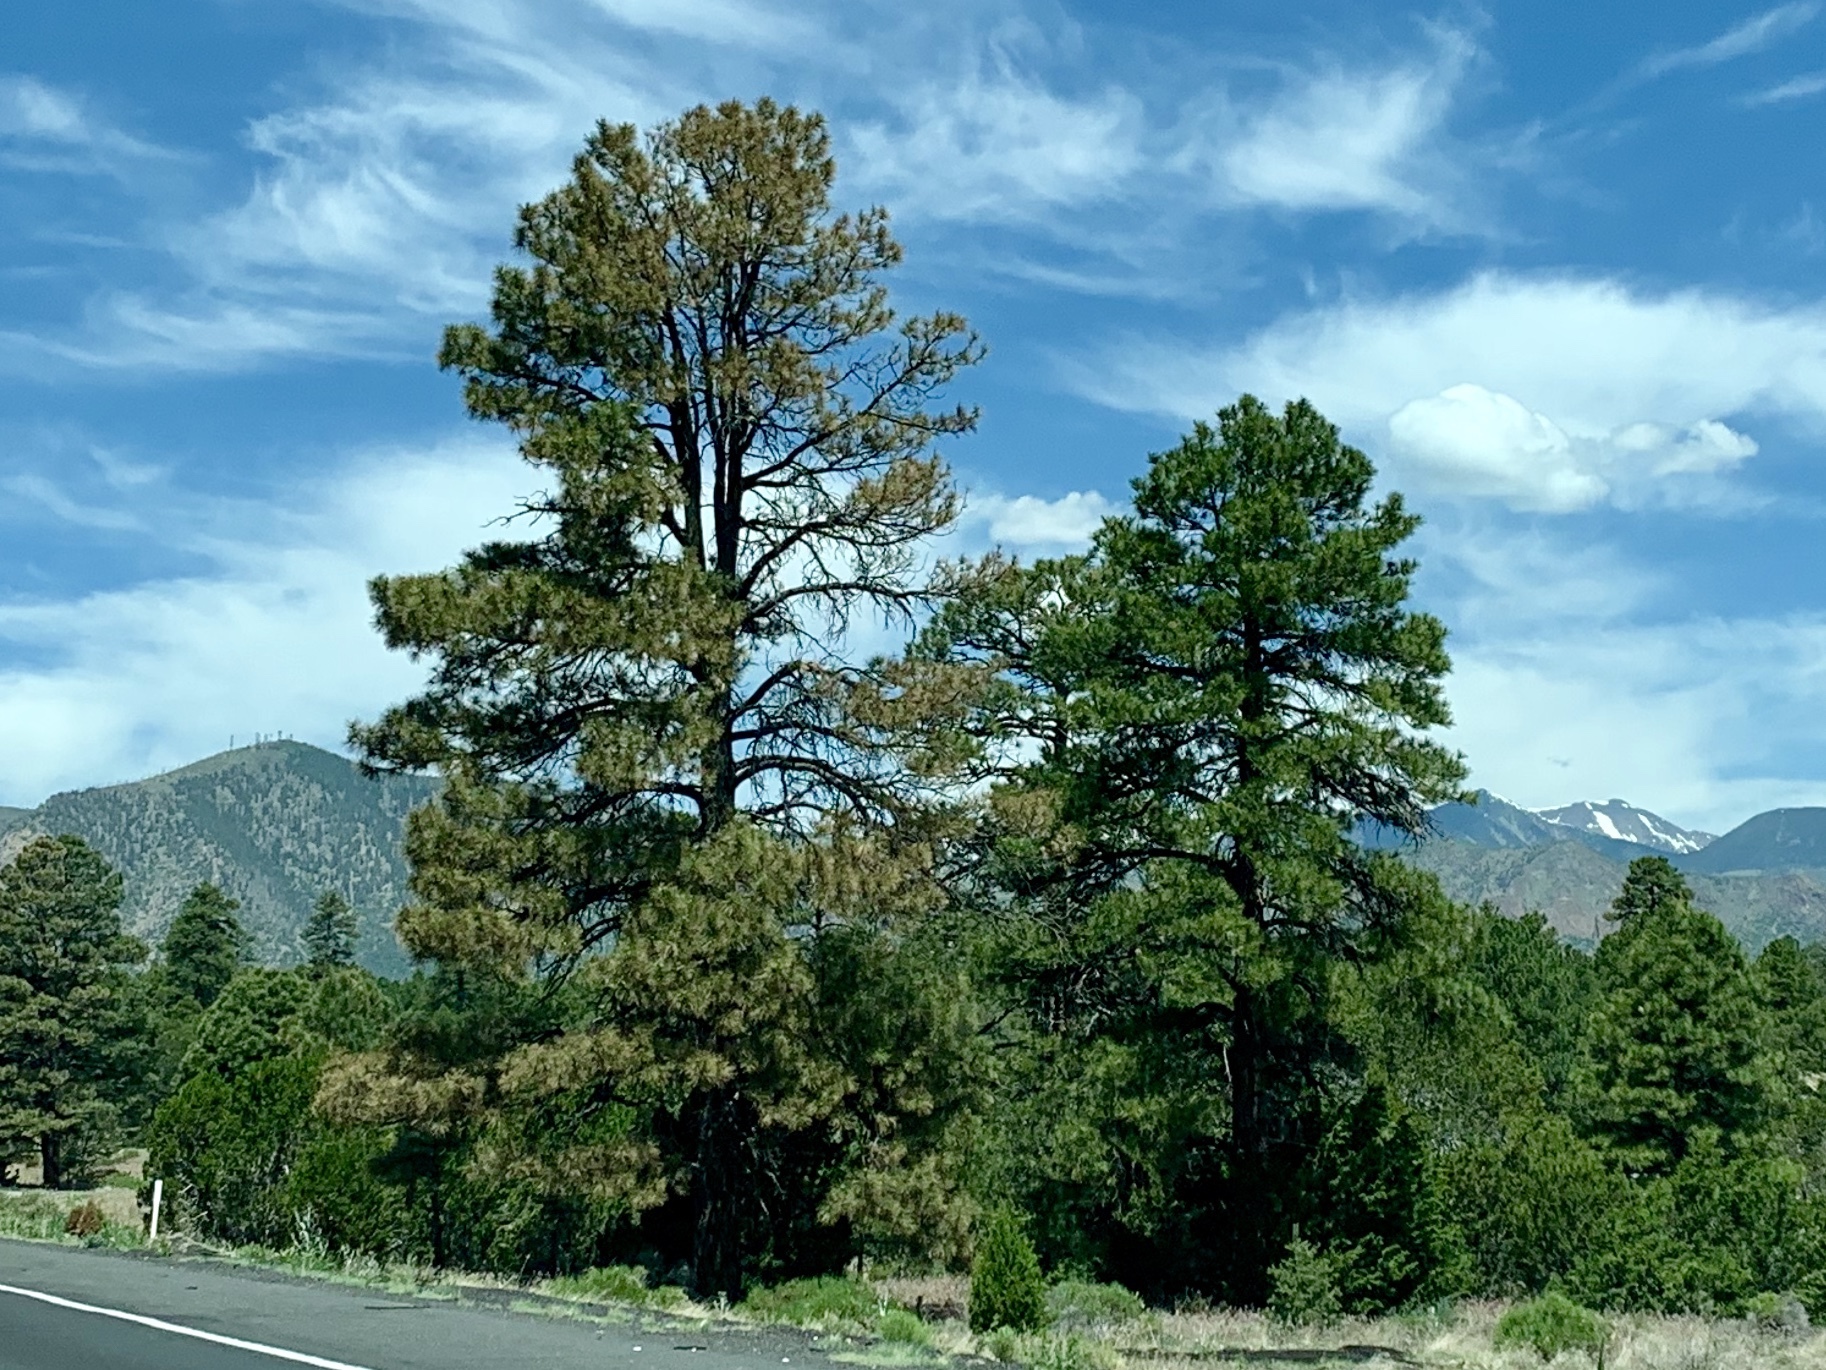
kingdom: Plantae
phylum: Tracheophyta
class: Pinopsida
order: Pinales
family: Pinaceae
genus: Pinus
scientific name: Pinus ponderosa
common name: Western yellow-pine
